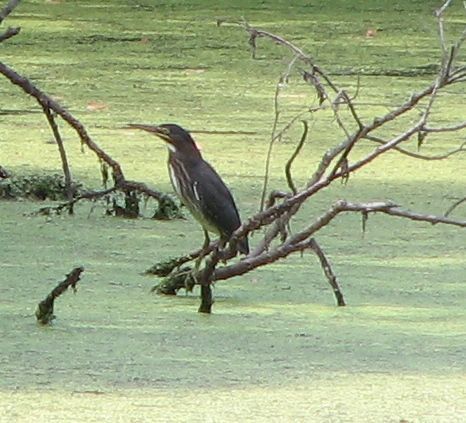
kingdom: Animalia
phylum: Chordata
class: Aves
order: Pelecaniformes
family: Ardeidae
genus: Butorides
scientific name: Butorides virescens
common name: Green heron
